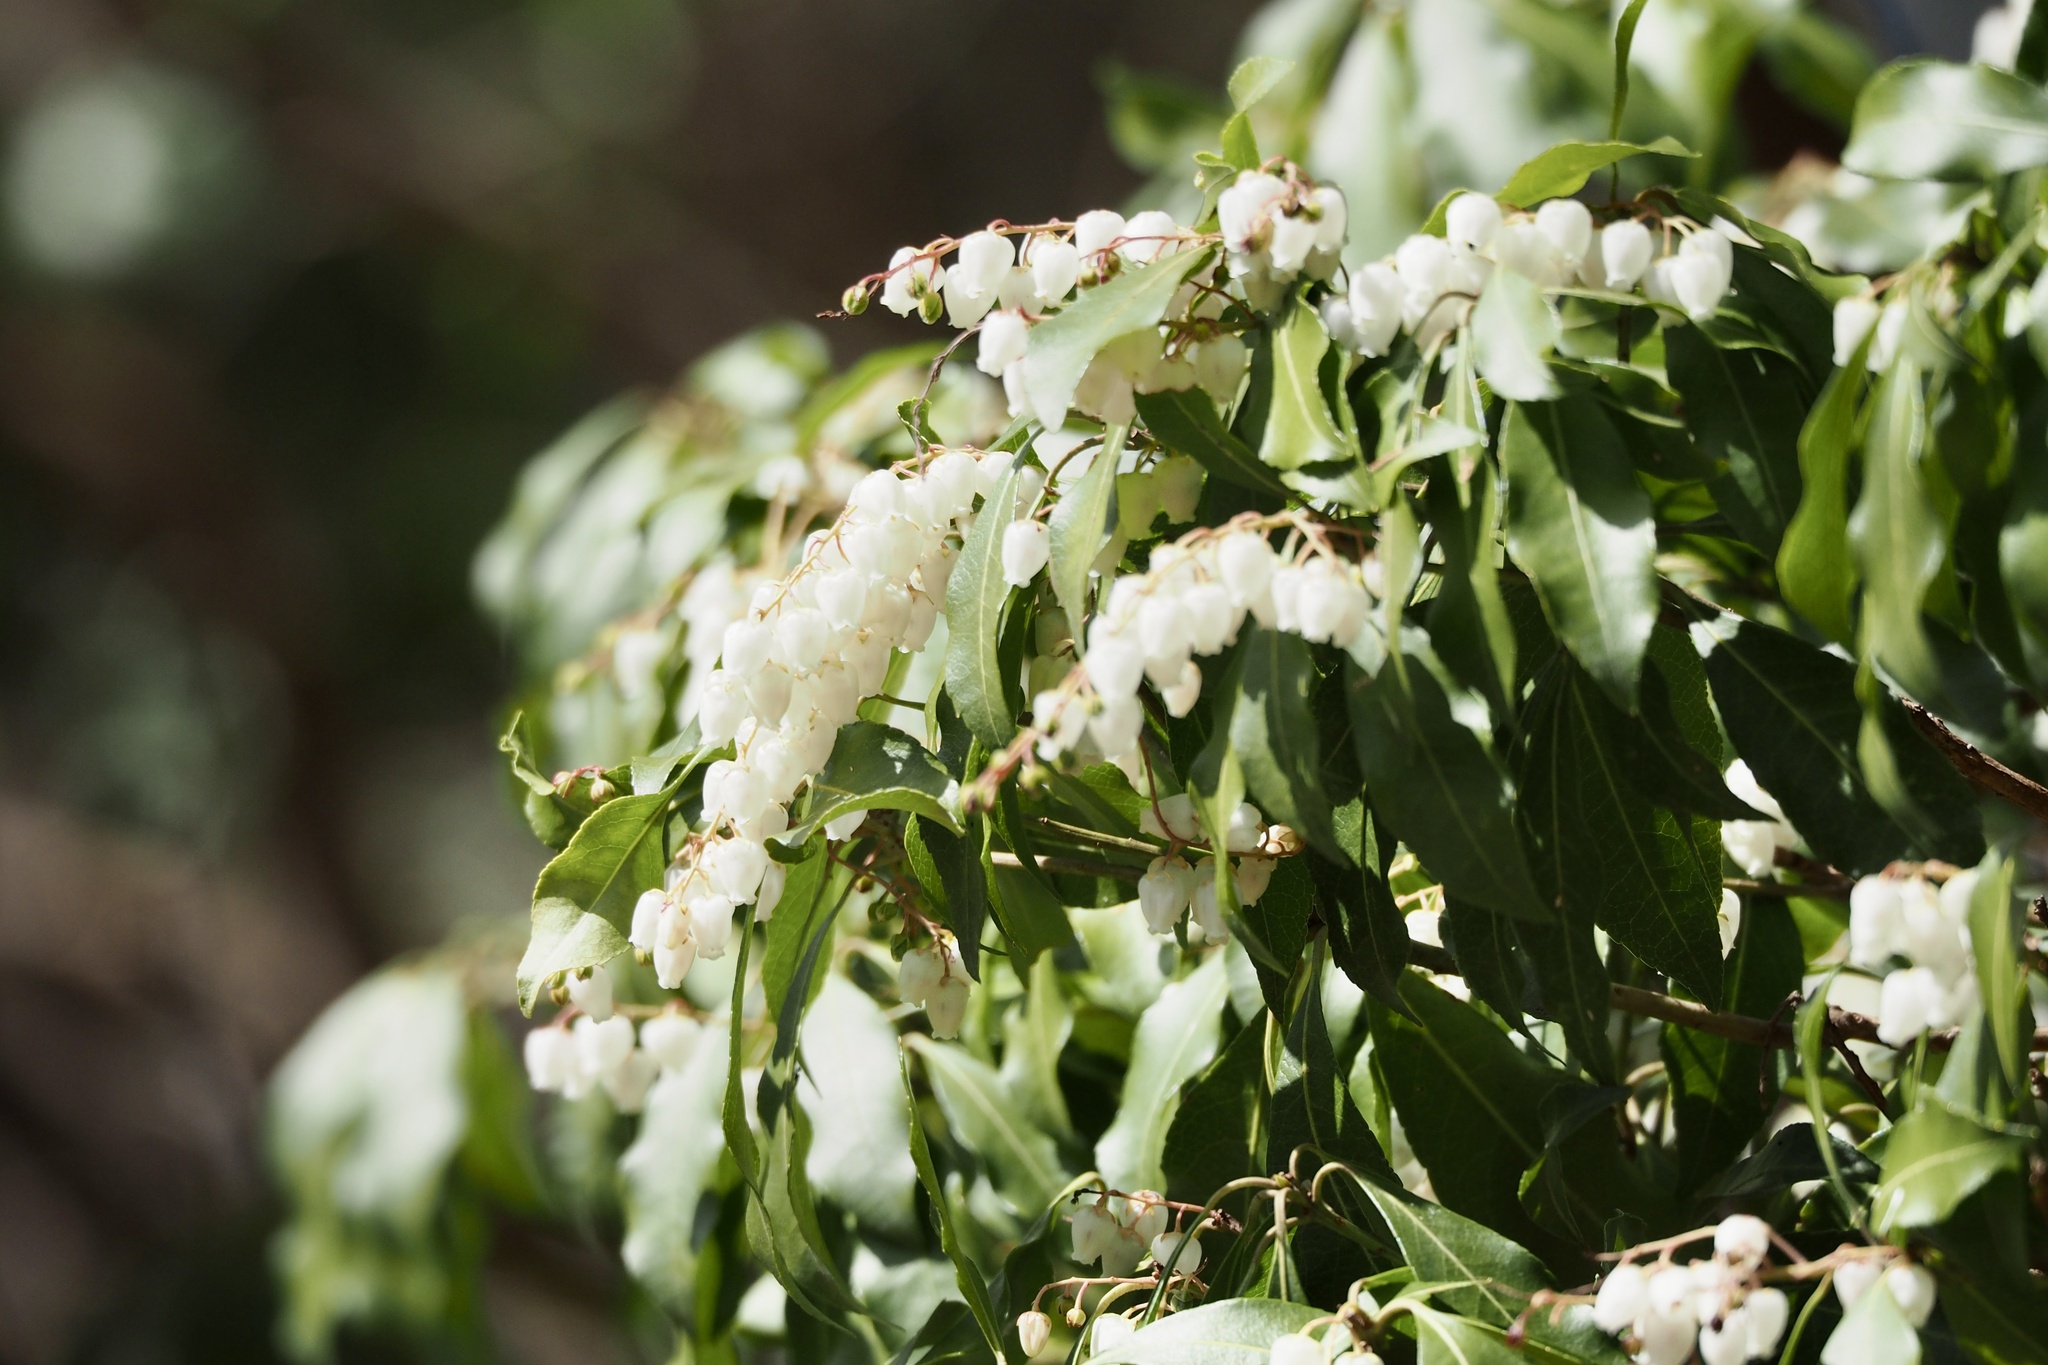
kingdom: Plantae
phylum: Tracheophyta
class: Magnoliopsida
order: Ericales
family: Ericaceae
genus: Pieris
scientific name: Pieris japonica
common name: Japanese pieris
